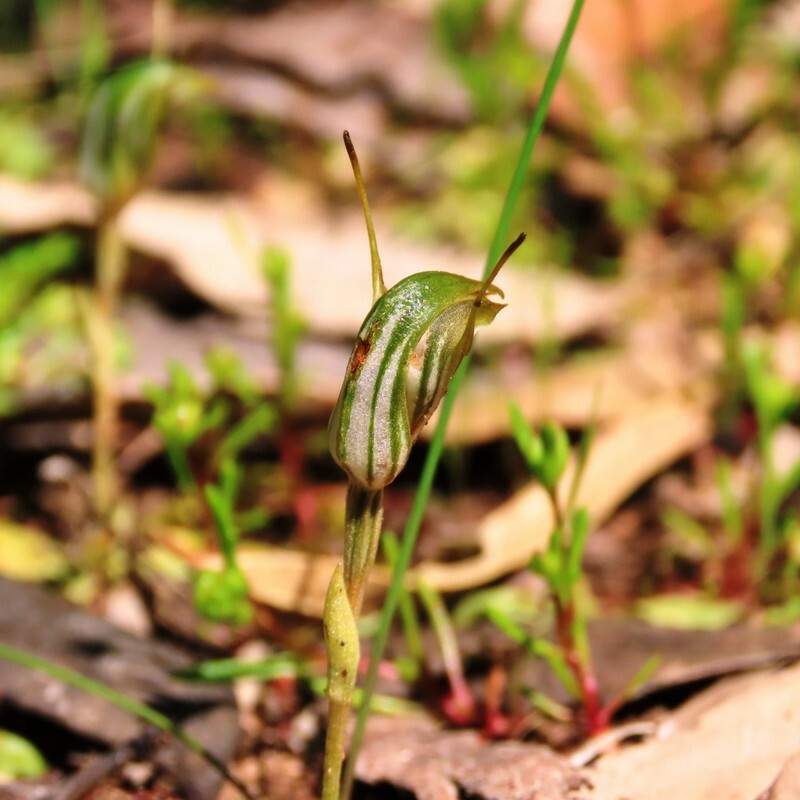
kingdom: Plantae
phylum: Tracheophyta
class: Liliopsida
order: Asparagales
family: Orchidaceae
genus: Pterostylis
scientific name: Pterostylis concinna
